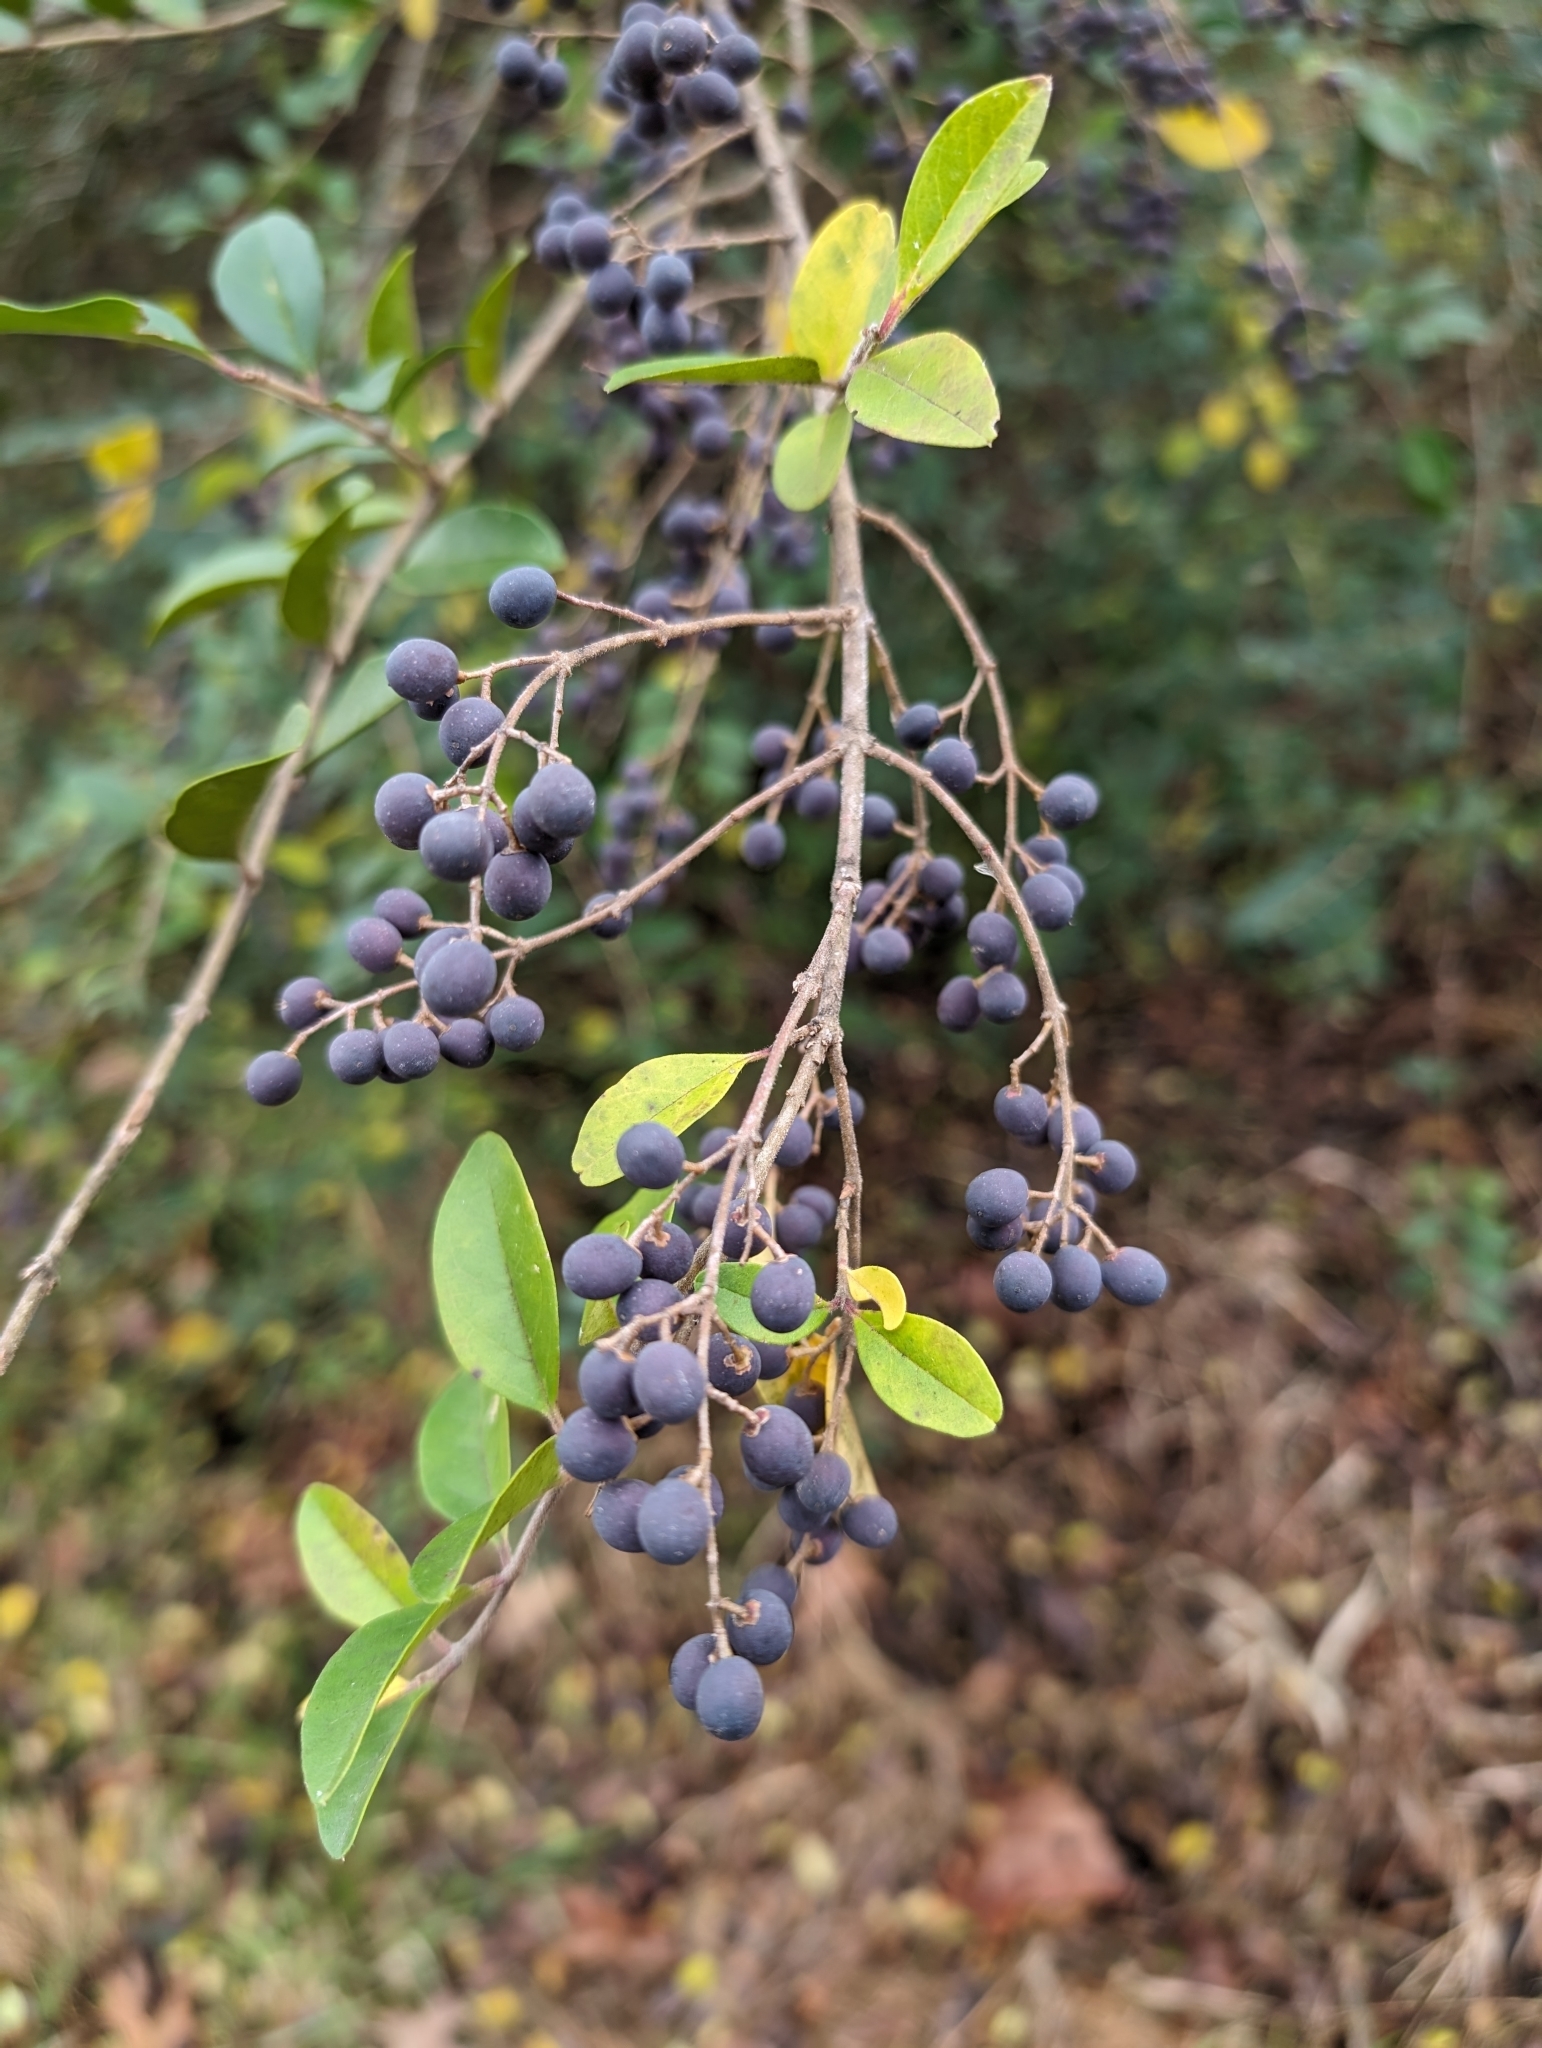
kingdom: Plantae
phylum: Tracheophyta
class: Magnoliopsida
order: Lamiales
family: Oleaceae
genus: Ligustrum
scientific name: Ligustrum sinense
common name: Chinese privet
